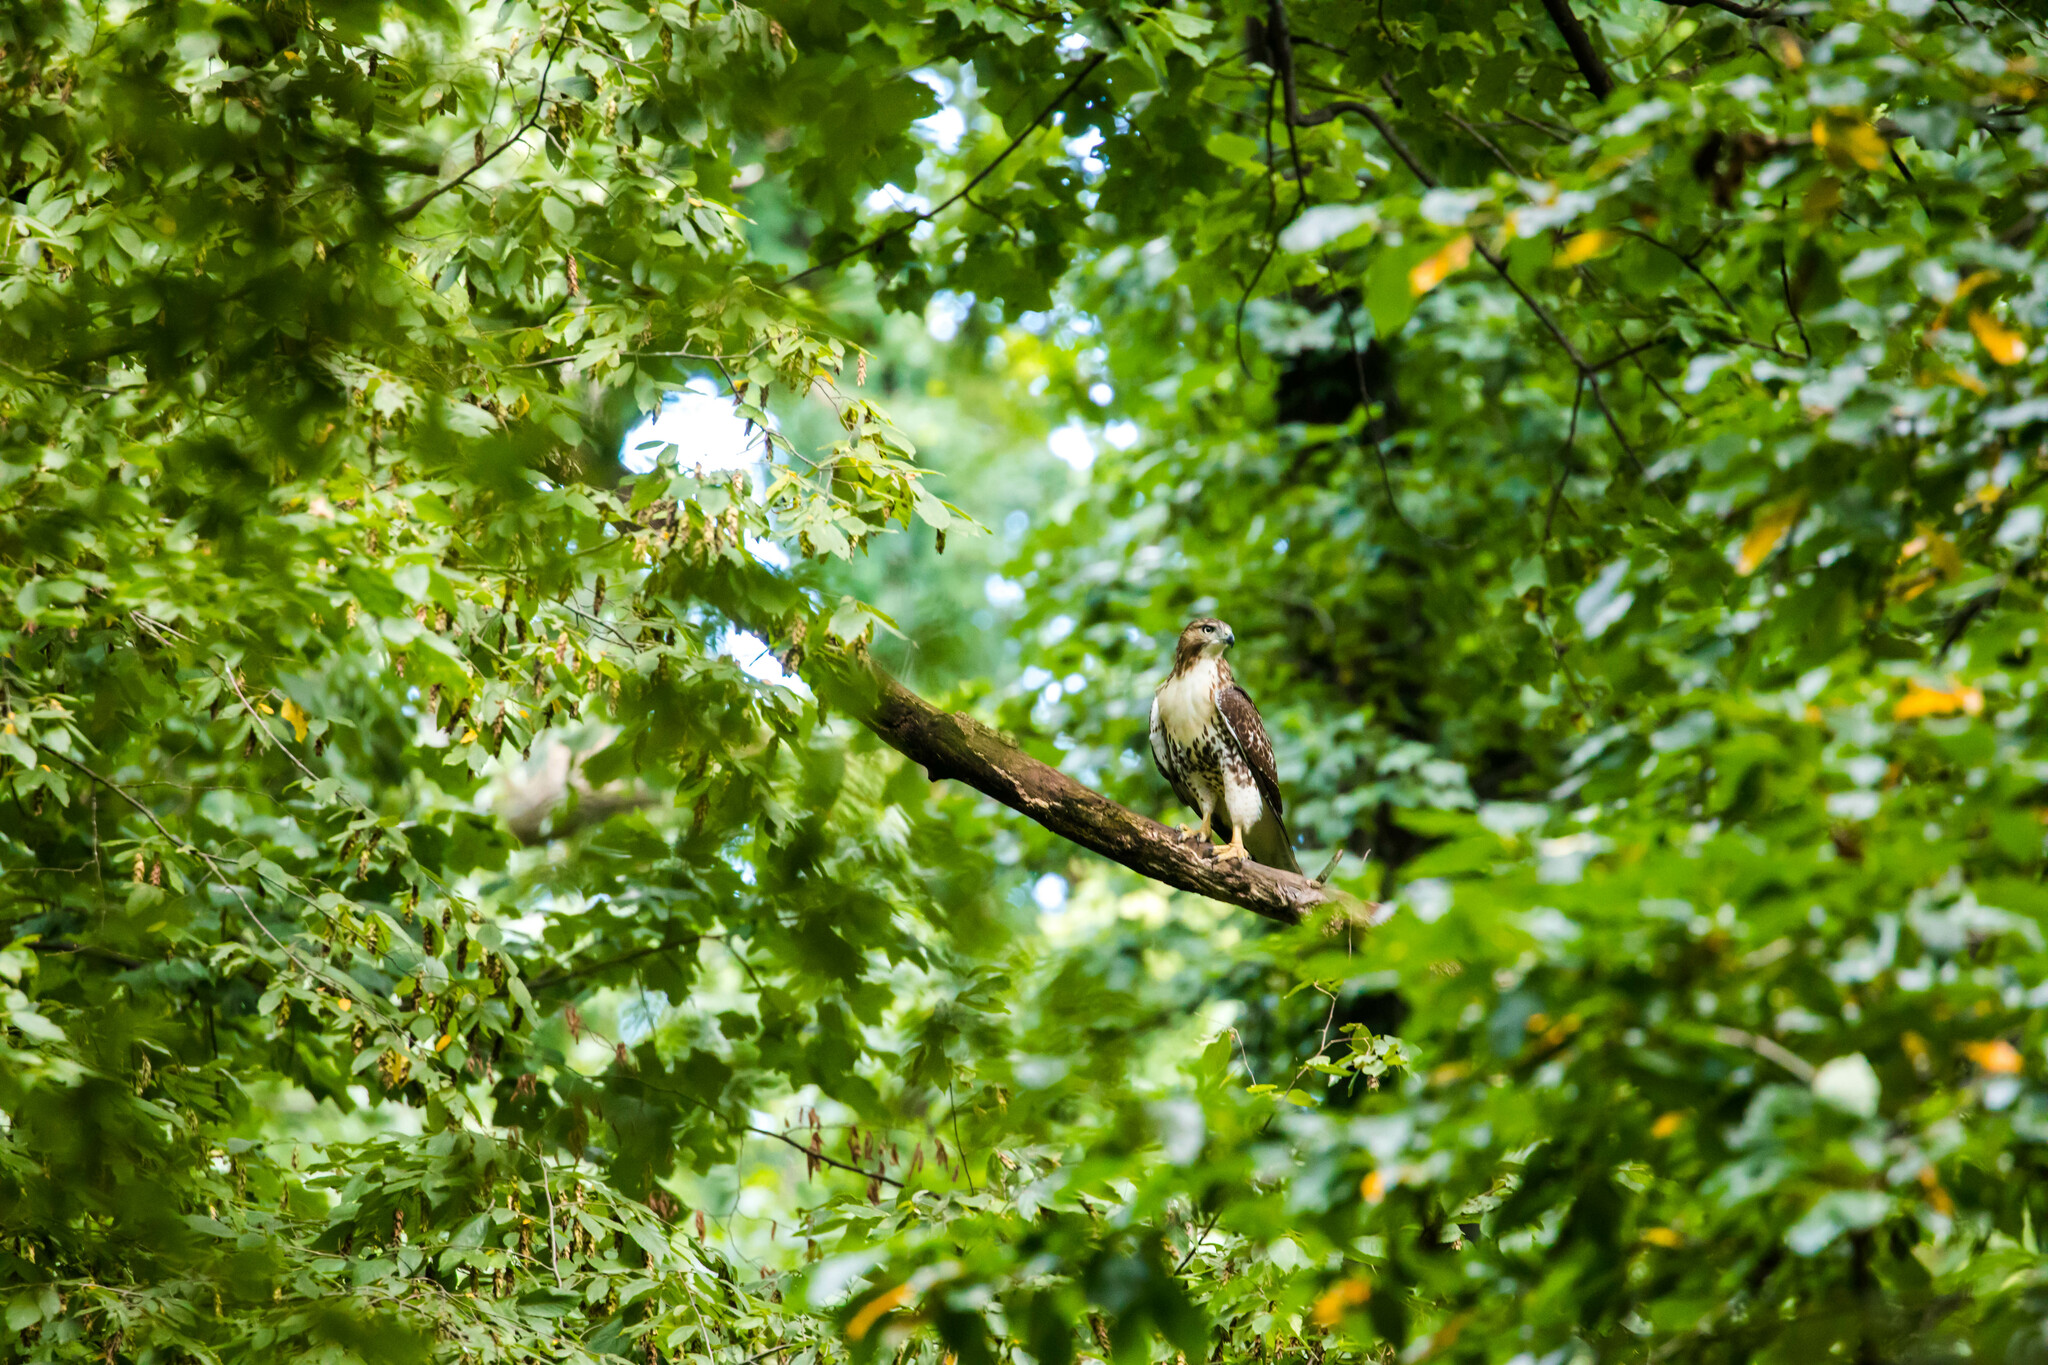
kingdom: Animalia
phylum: Chordata
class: Aves
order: Accipitriformes
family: Accipitridae
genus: Buteo
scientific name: Buteo jamaicensis
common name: Red-tailed hawk
